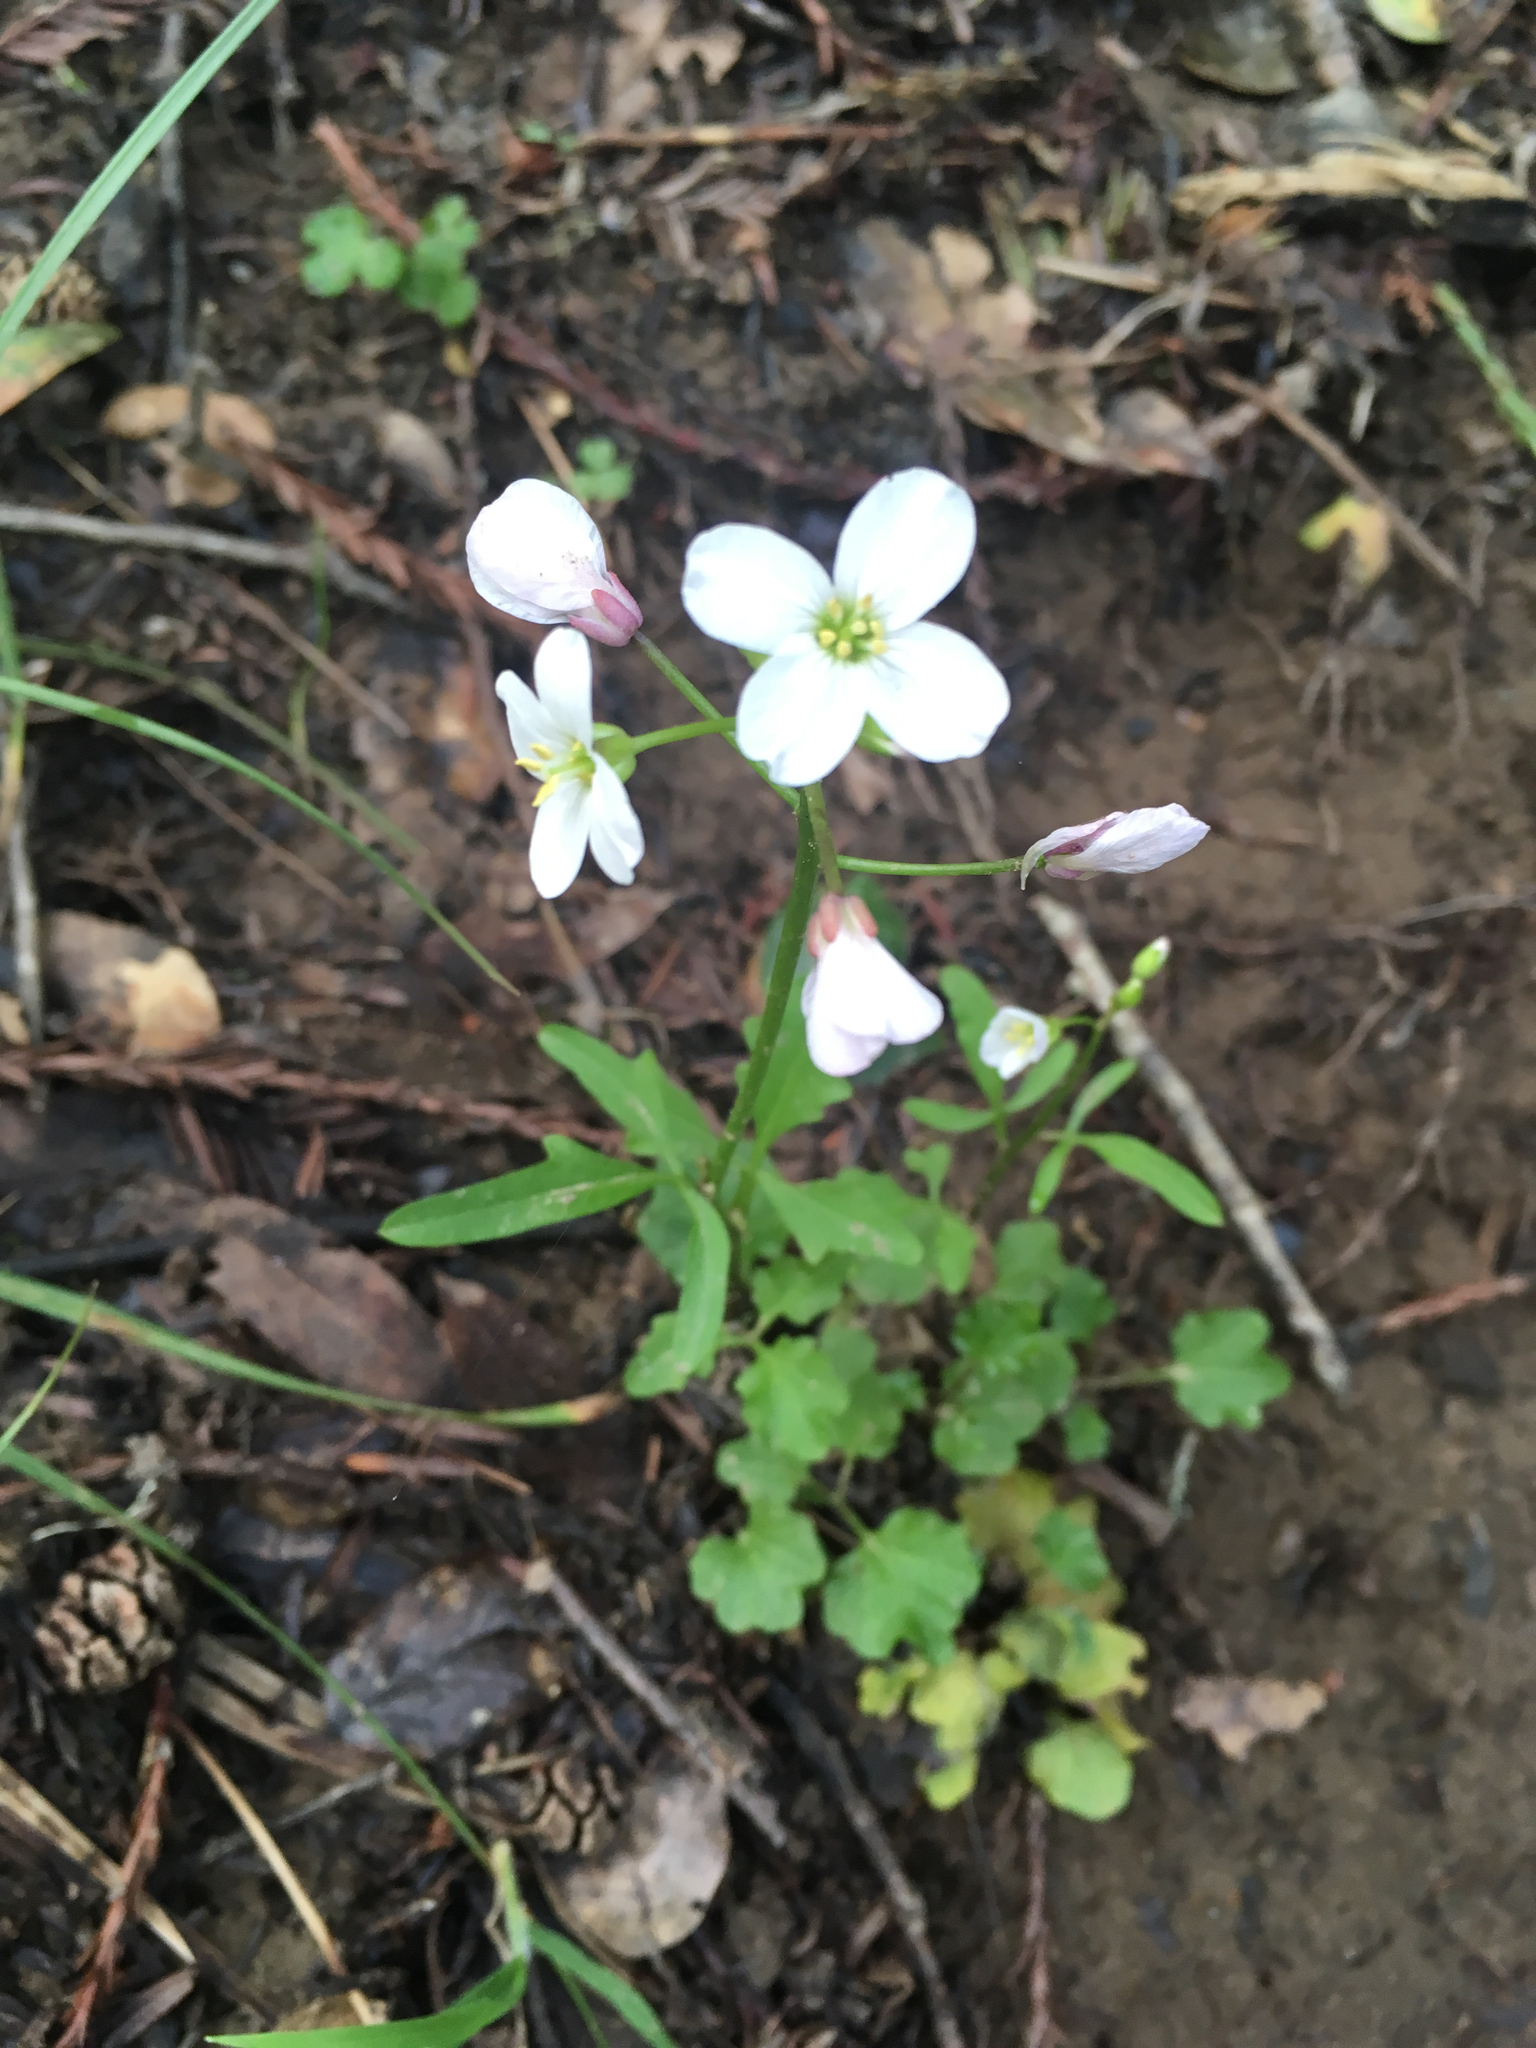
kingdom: Plantae
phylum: Tracheophyta
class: Magnoliopsida
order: Brassicales
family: Brassicaceae
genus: Cardamine
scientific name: Cardamine californica
